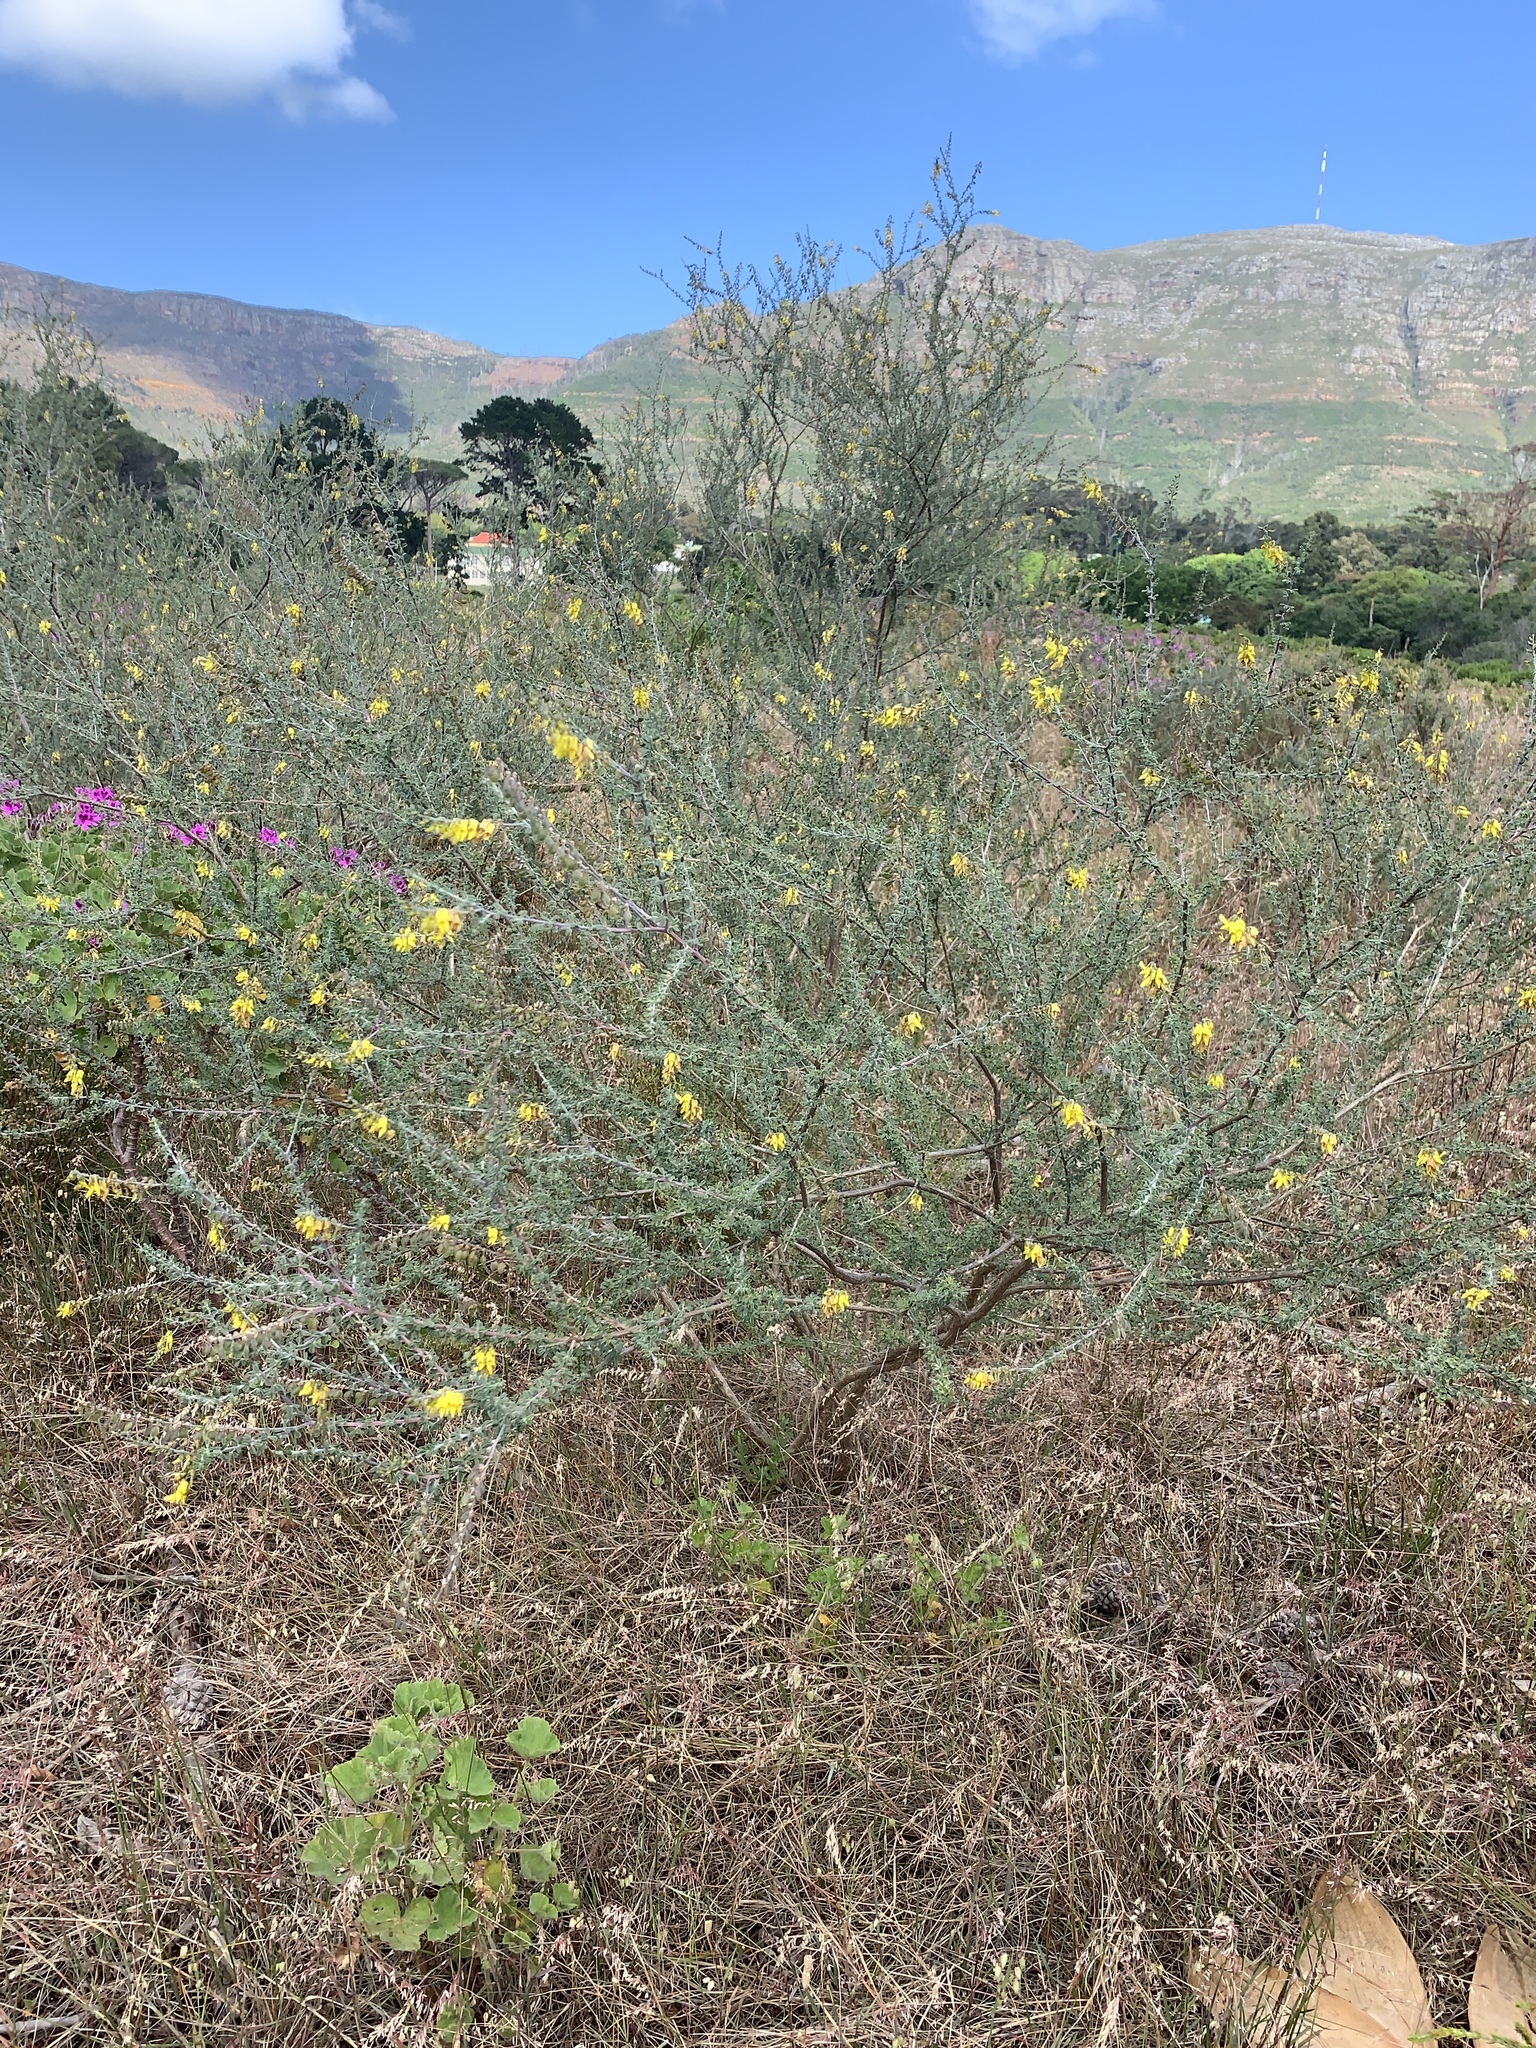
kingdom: Plantae
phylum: Tracheophyta
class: Magnoliopsida
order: Fabales
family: Fabaceae
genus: Wiborgia
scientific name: Wiborgia obcordata
